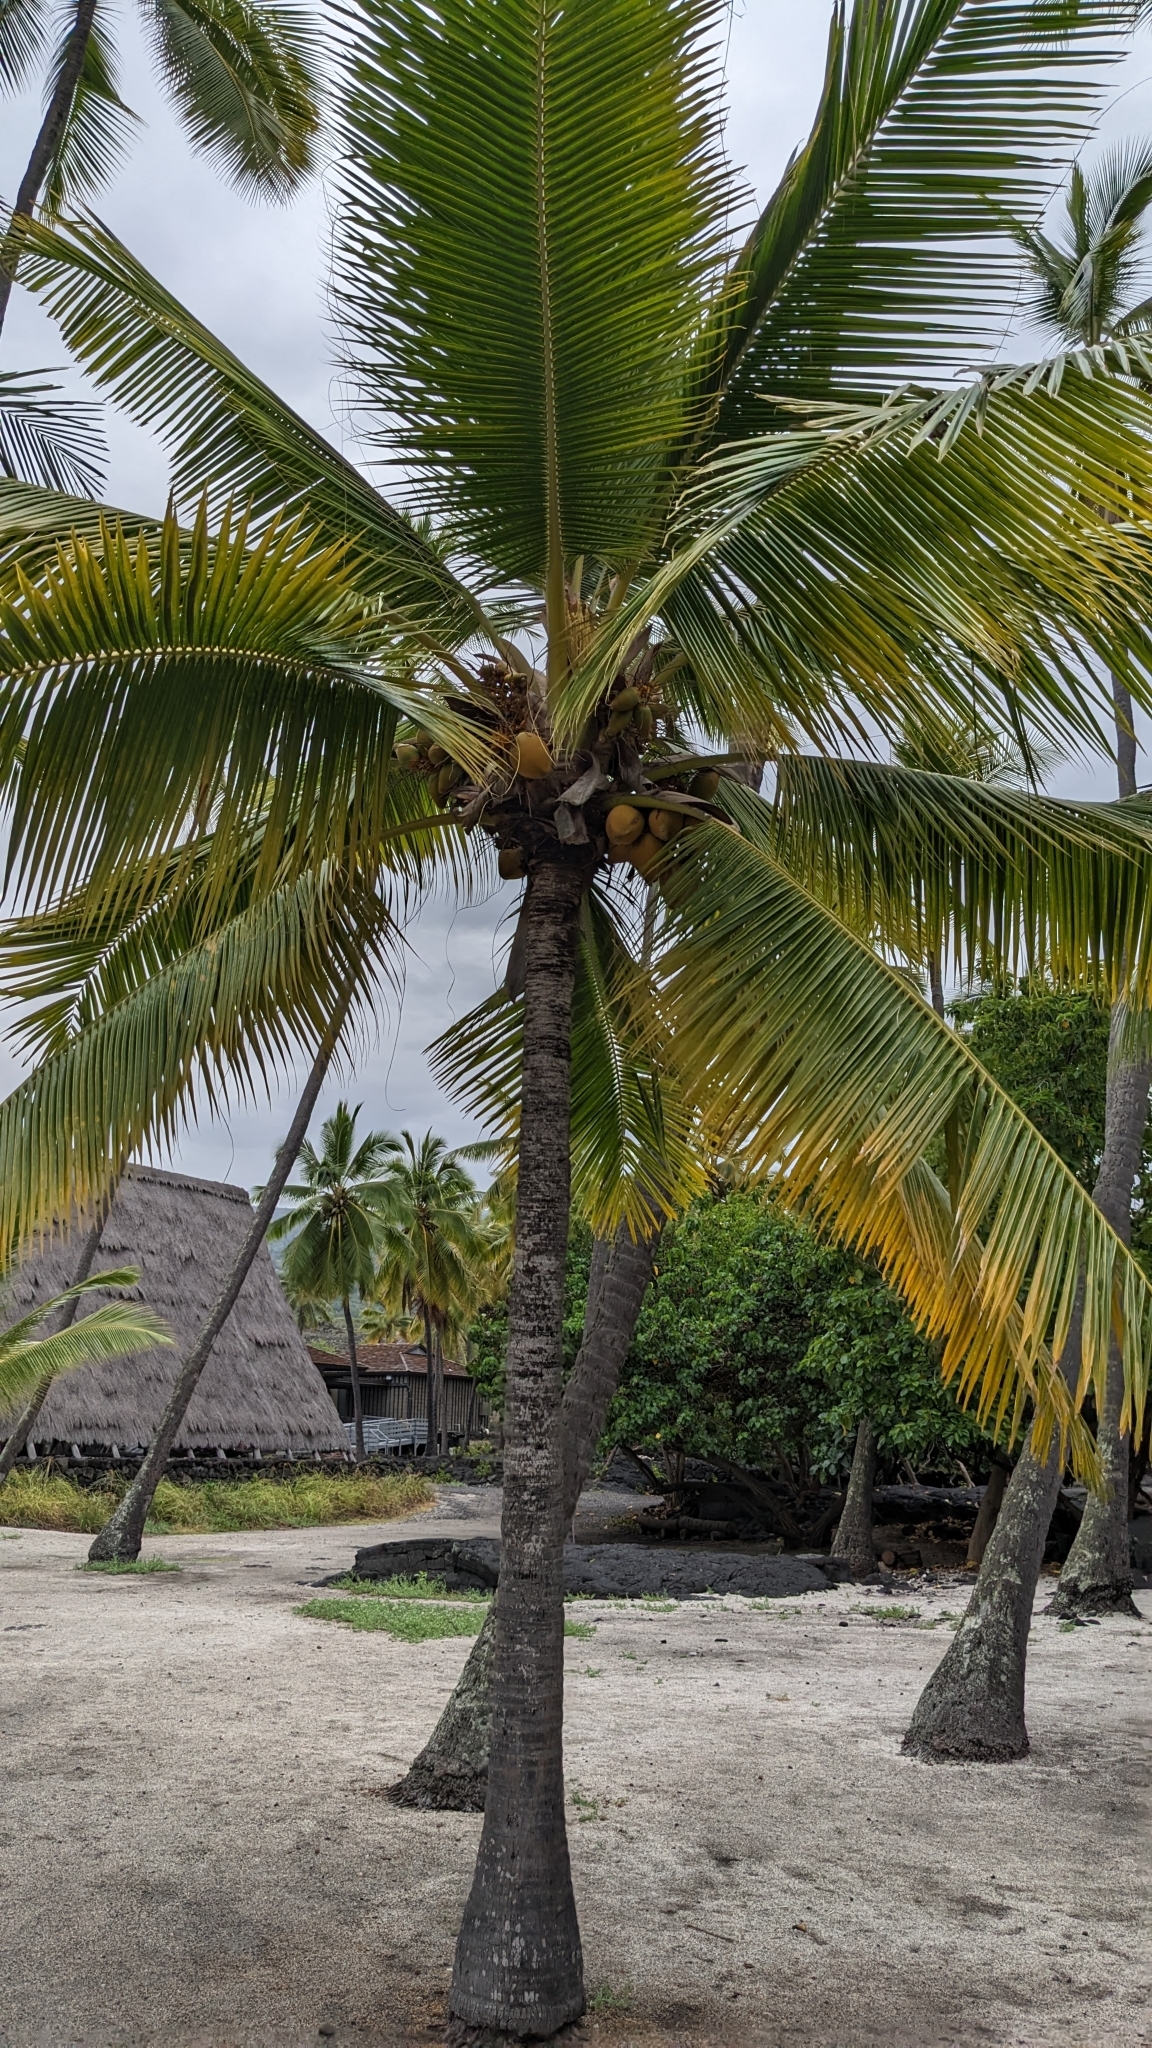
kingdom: Plantae
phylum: Tracheophyta
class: Liliopsida
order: Arecales
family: Arecaceae
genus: Cocos
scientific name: Cocos nucifera
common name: Coconut palm
